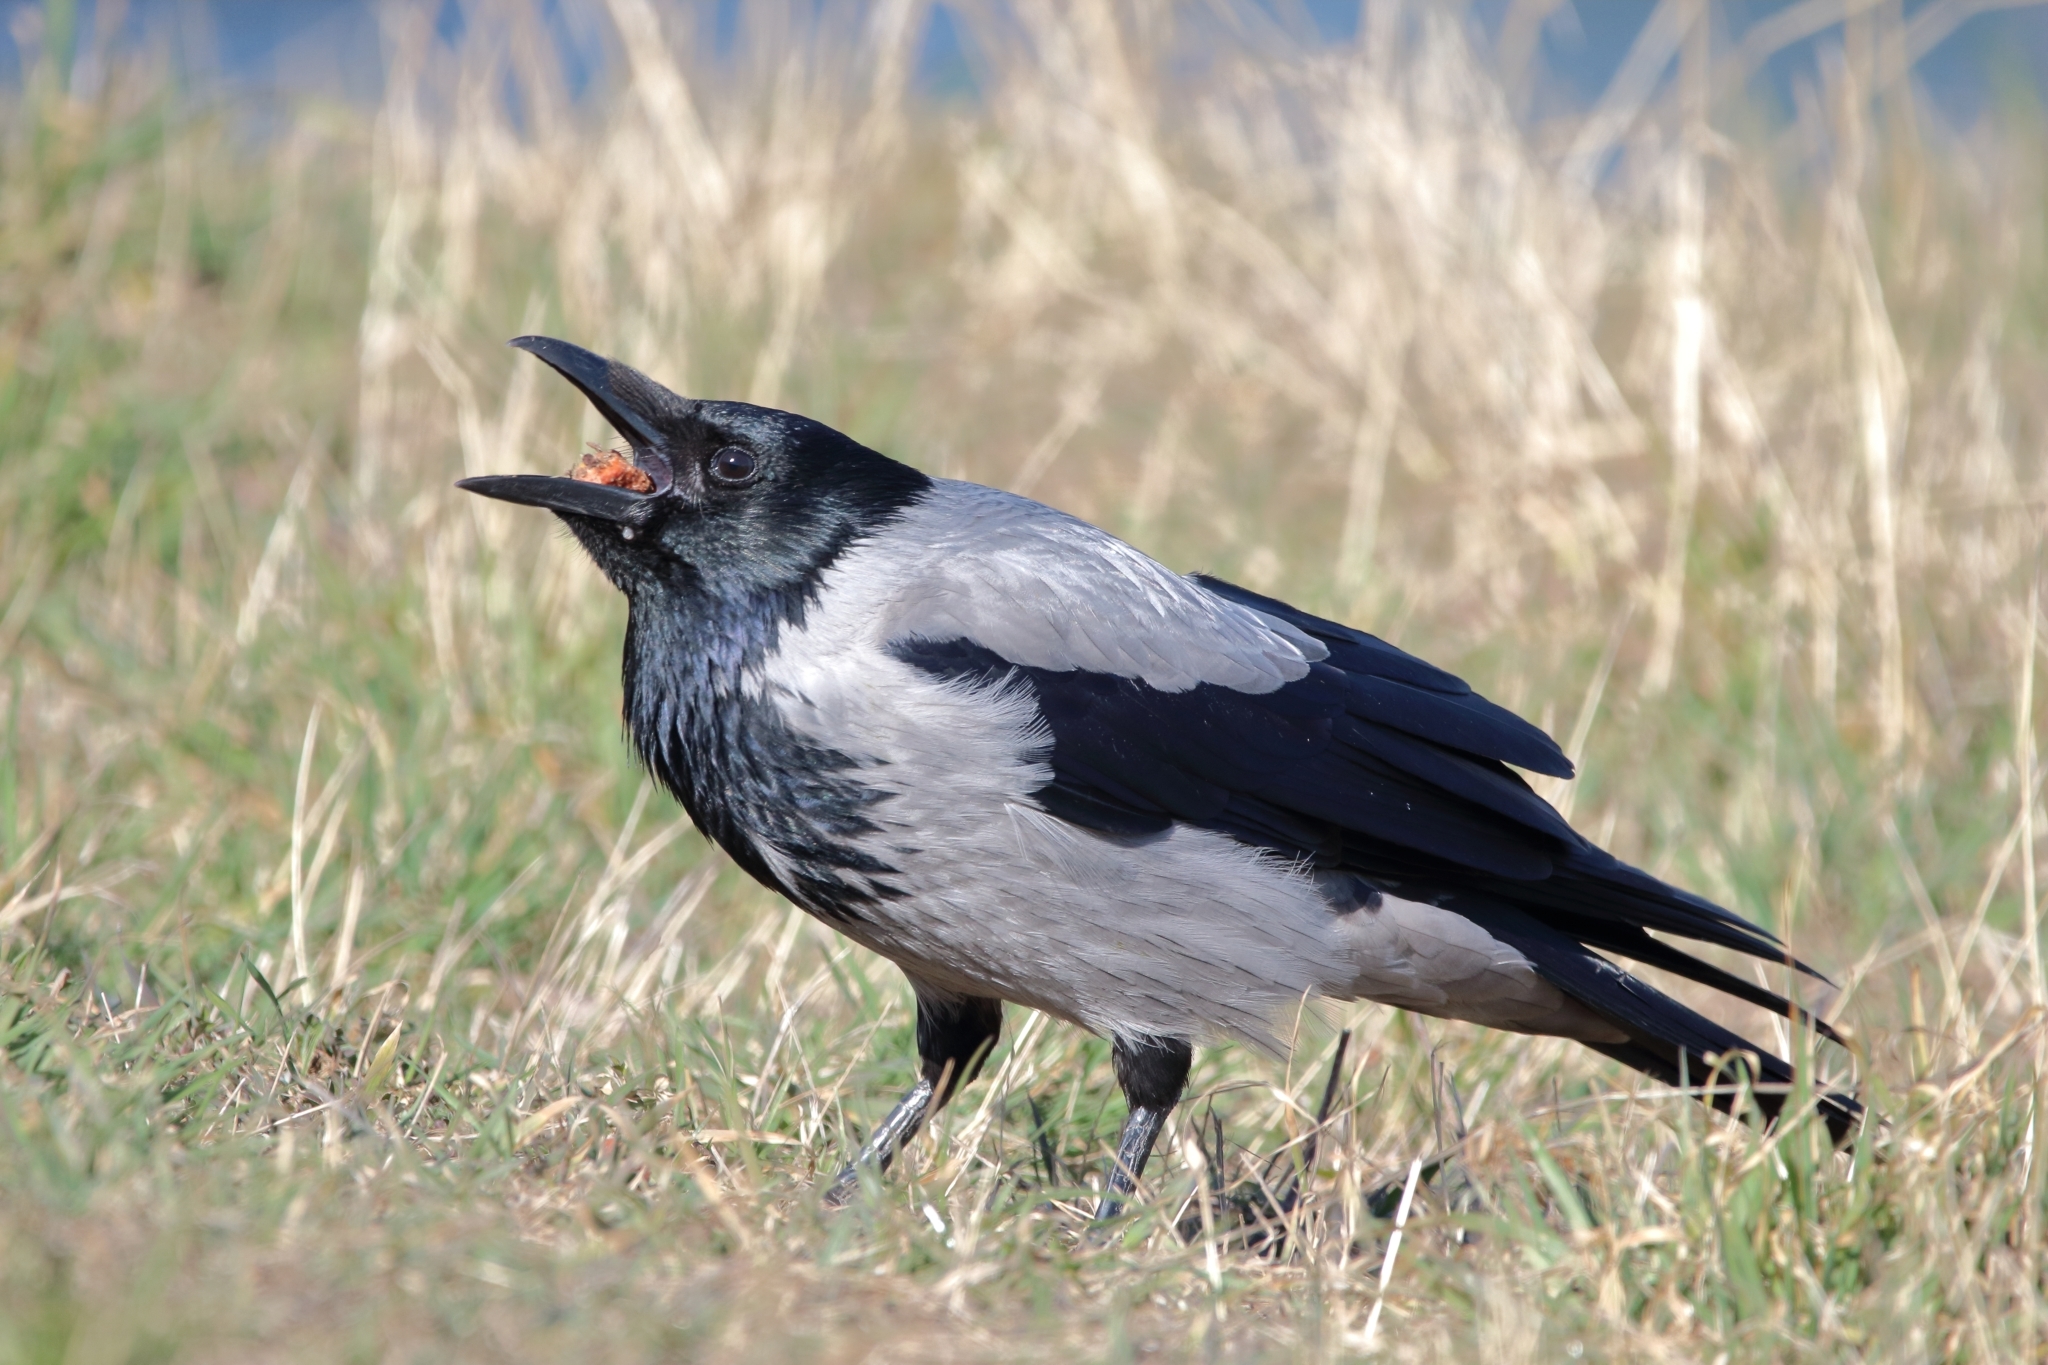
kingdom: Animalia
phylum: Chordata
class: Aves
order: Passeriformes
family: Corvidae
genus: Corvus
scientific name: Corvus
